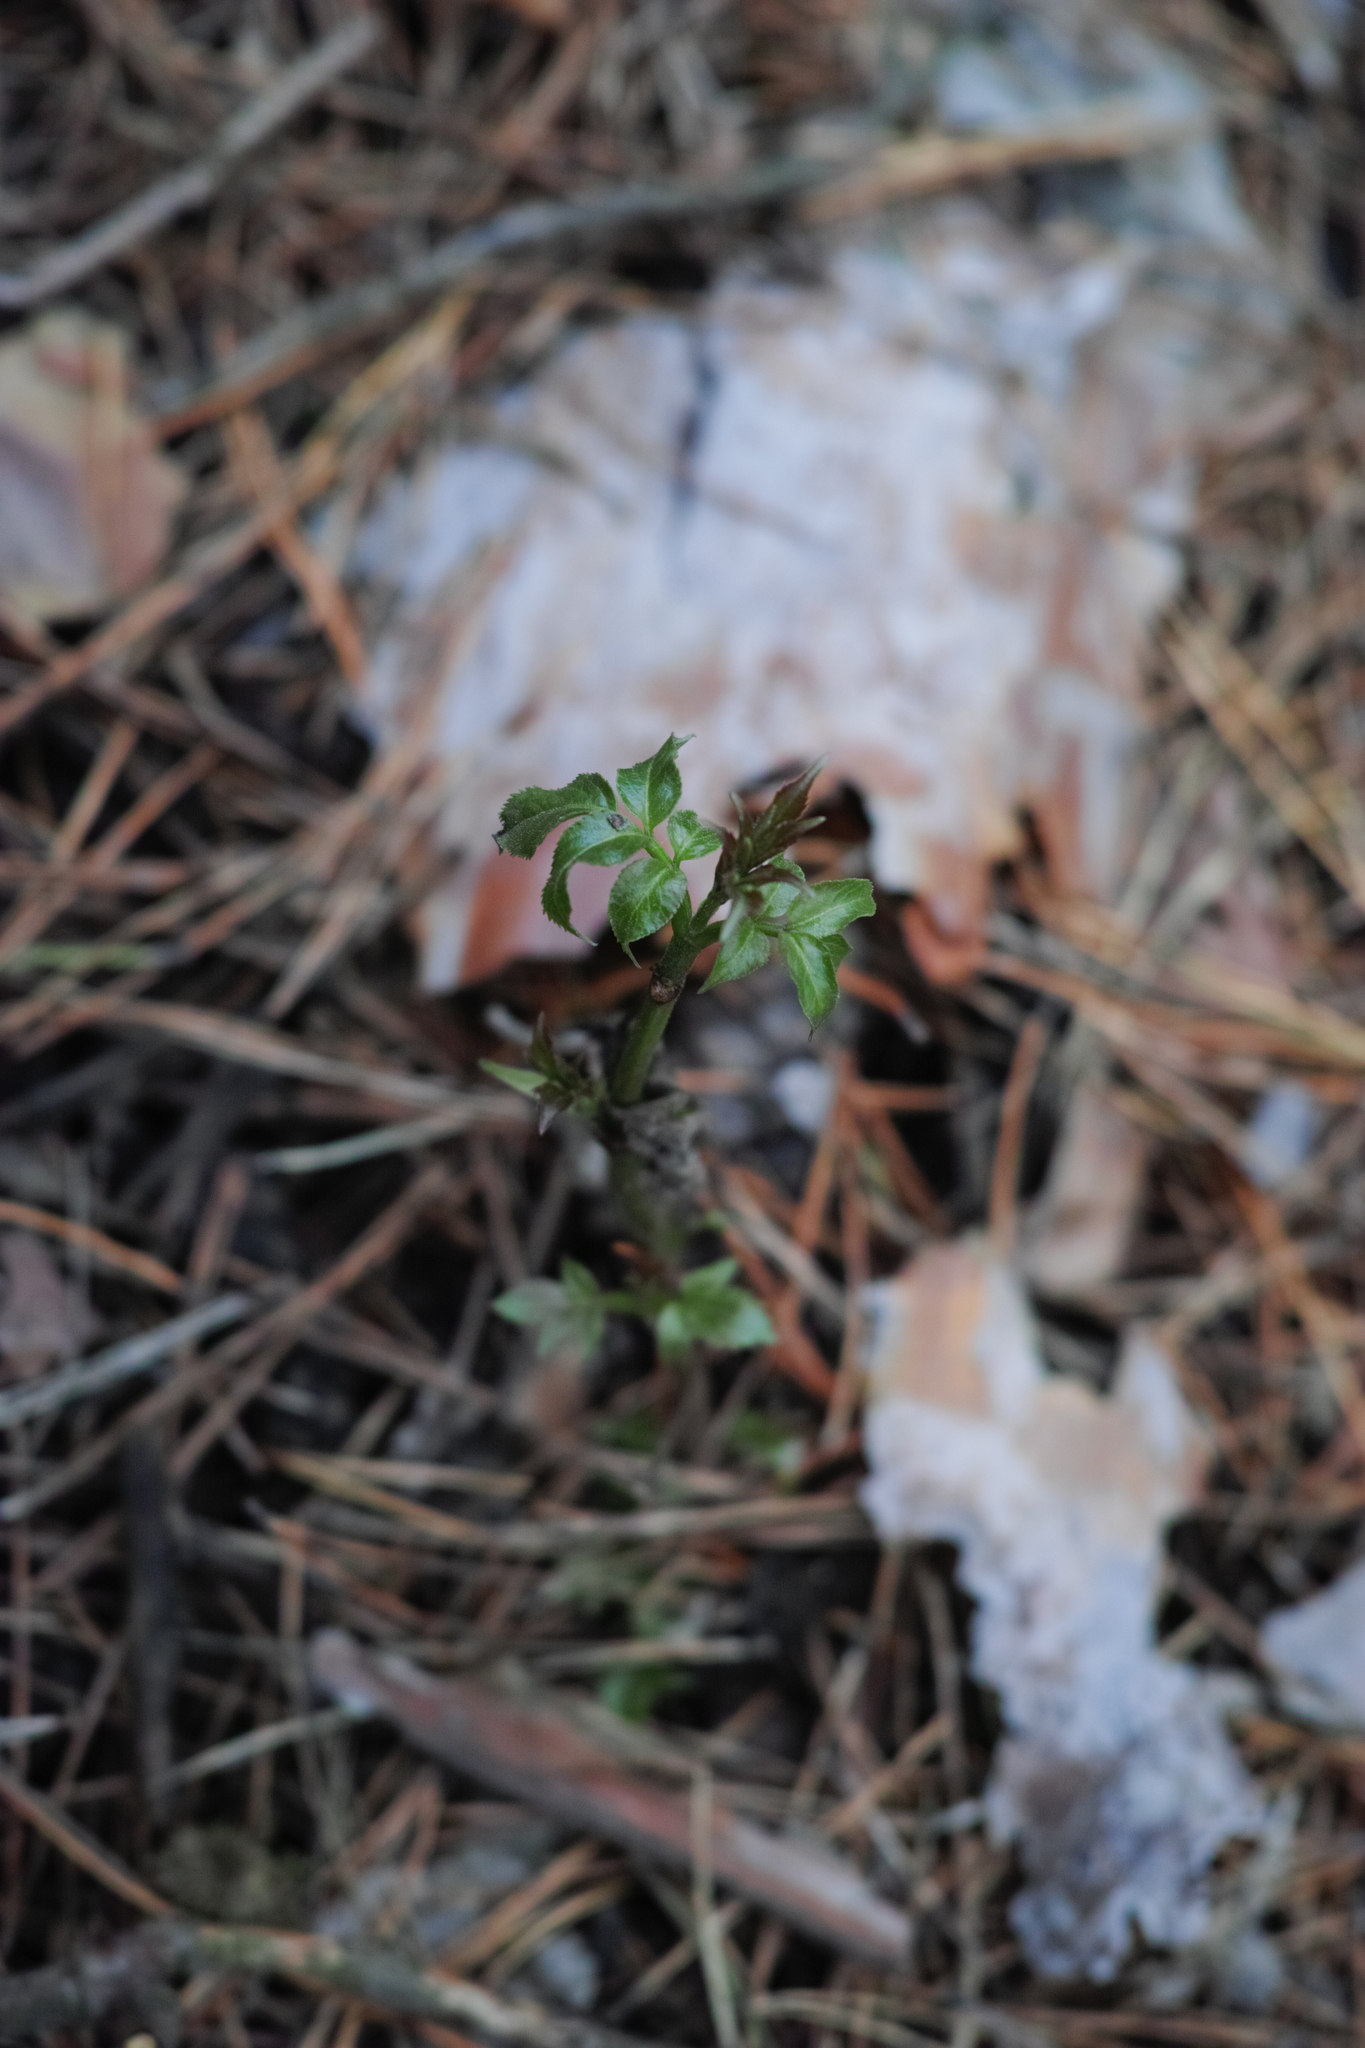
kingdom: Plantae
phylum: Tracheophyta
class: Magnoliopsida
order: Dipsacales
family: Viburnaceae
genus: Sambucus
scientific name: Sambucus racemosa
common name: Red-berried elder
